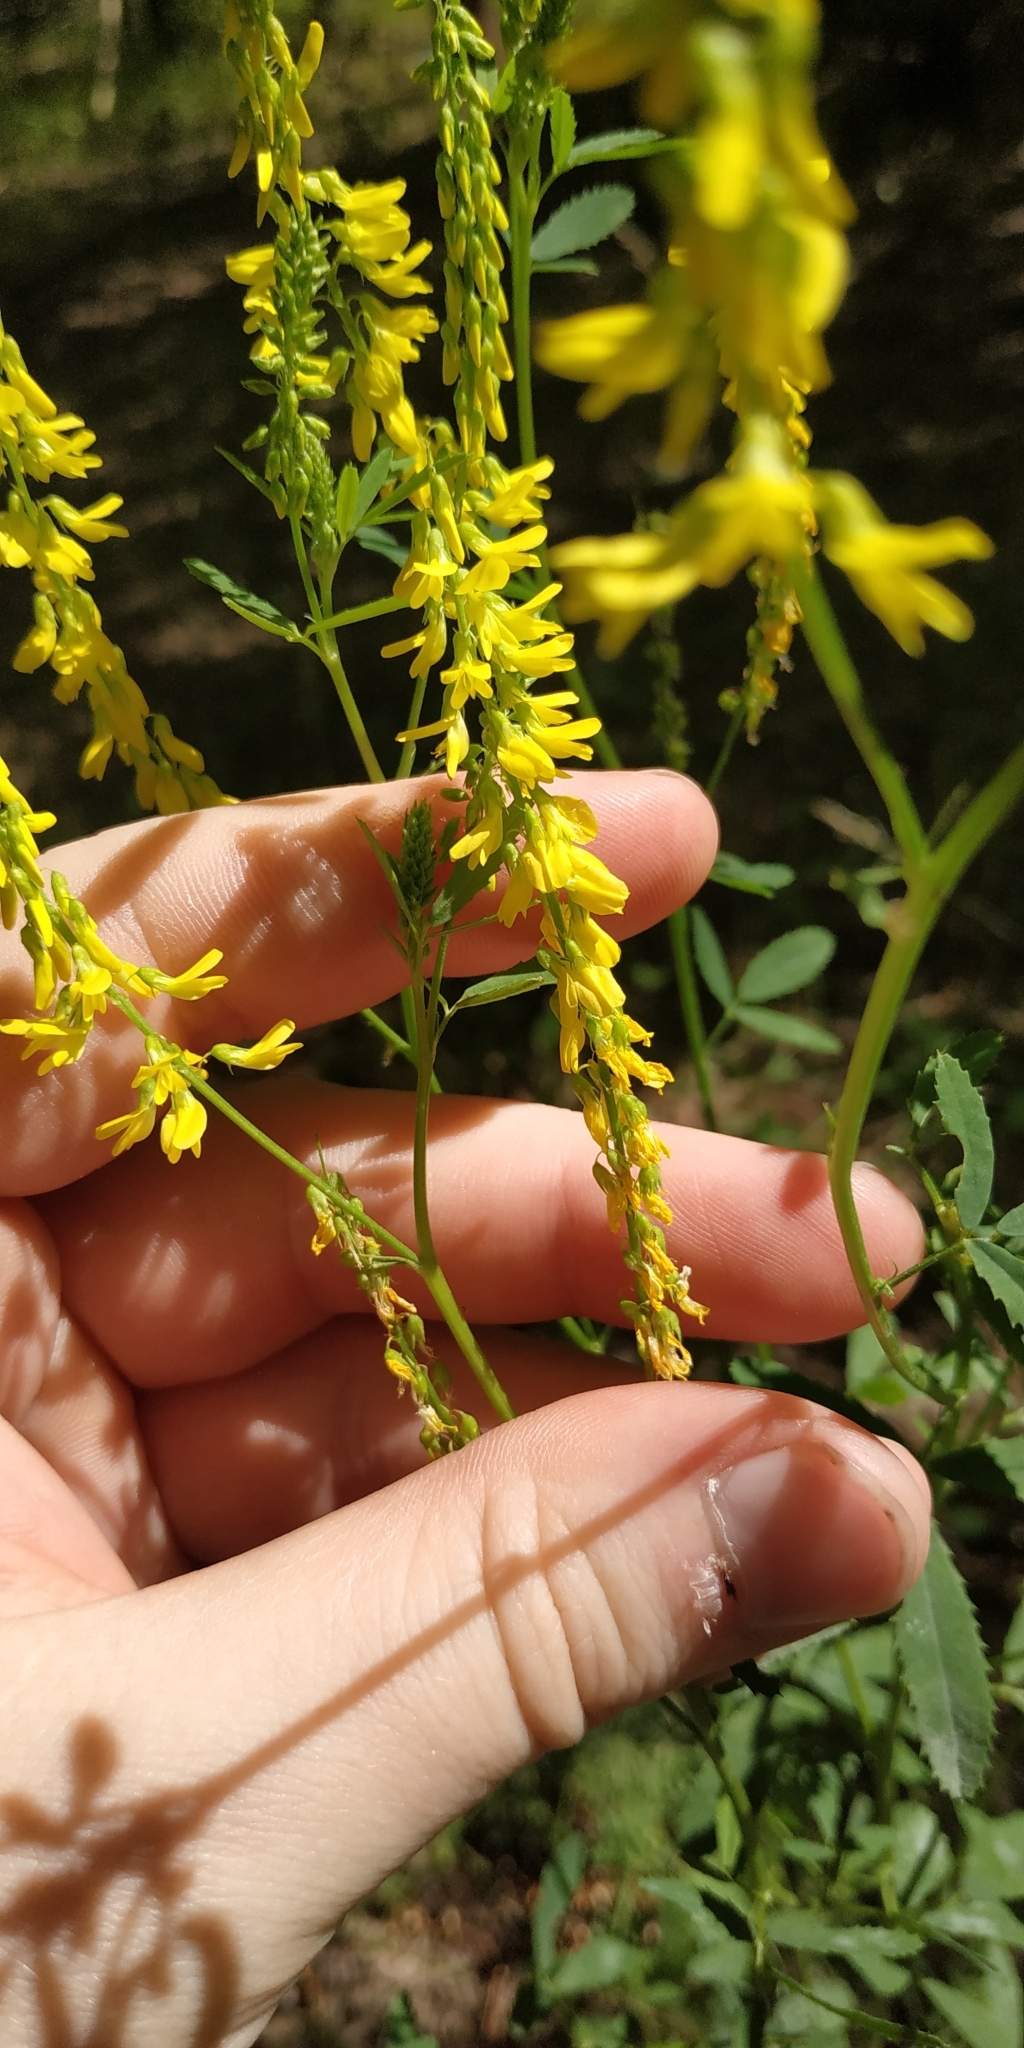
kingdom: Plantae
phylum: Tracheophyta
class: Magnoliopsida
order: Fabales
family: Fabaceae
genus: Melilotus
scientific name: Melilotus officinalis
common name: Sweetclover
